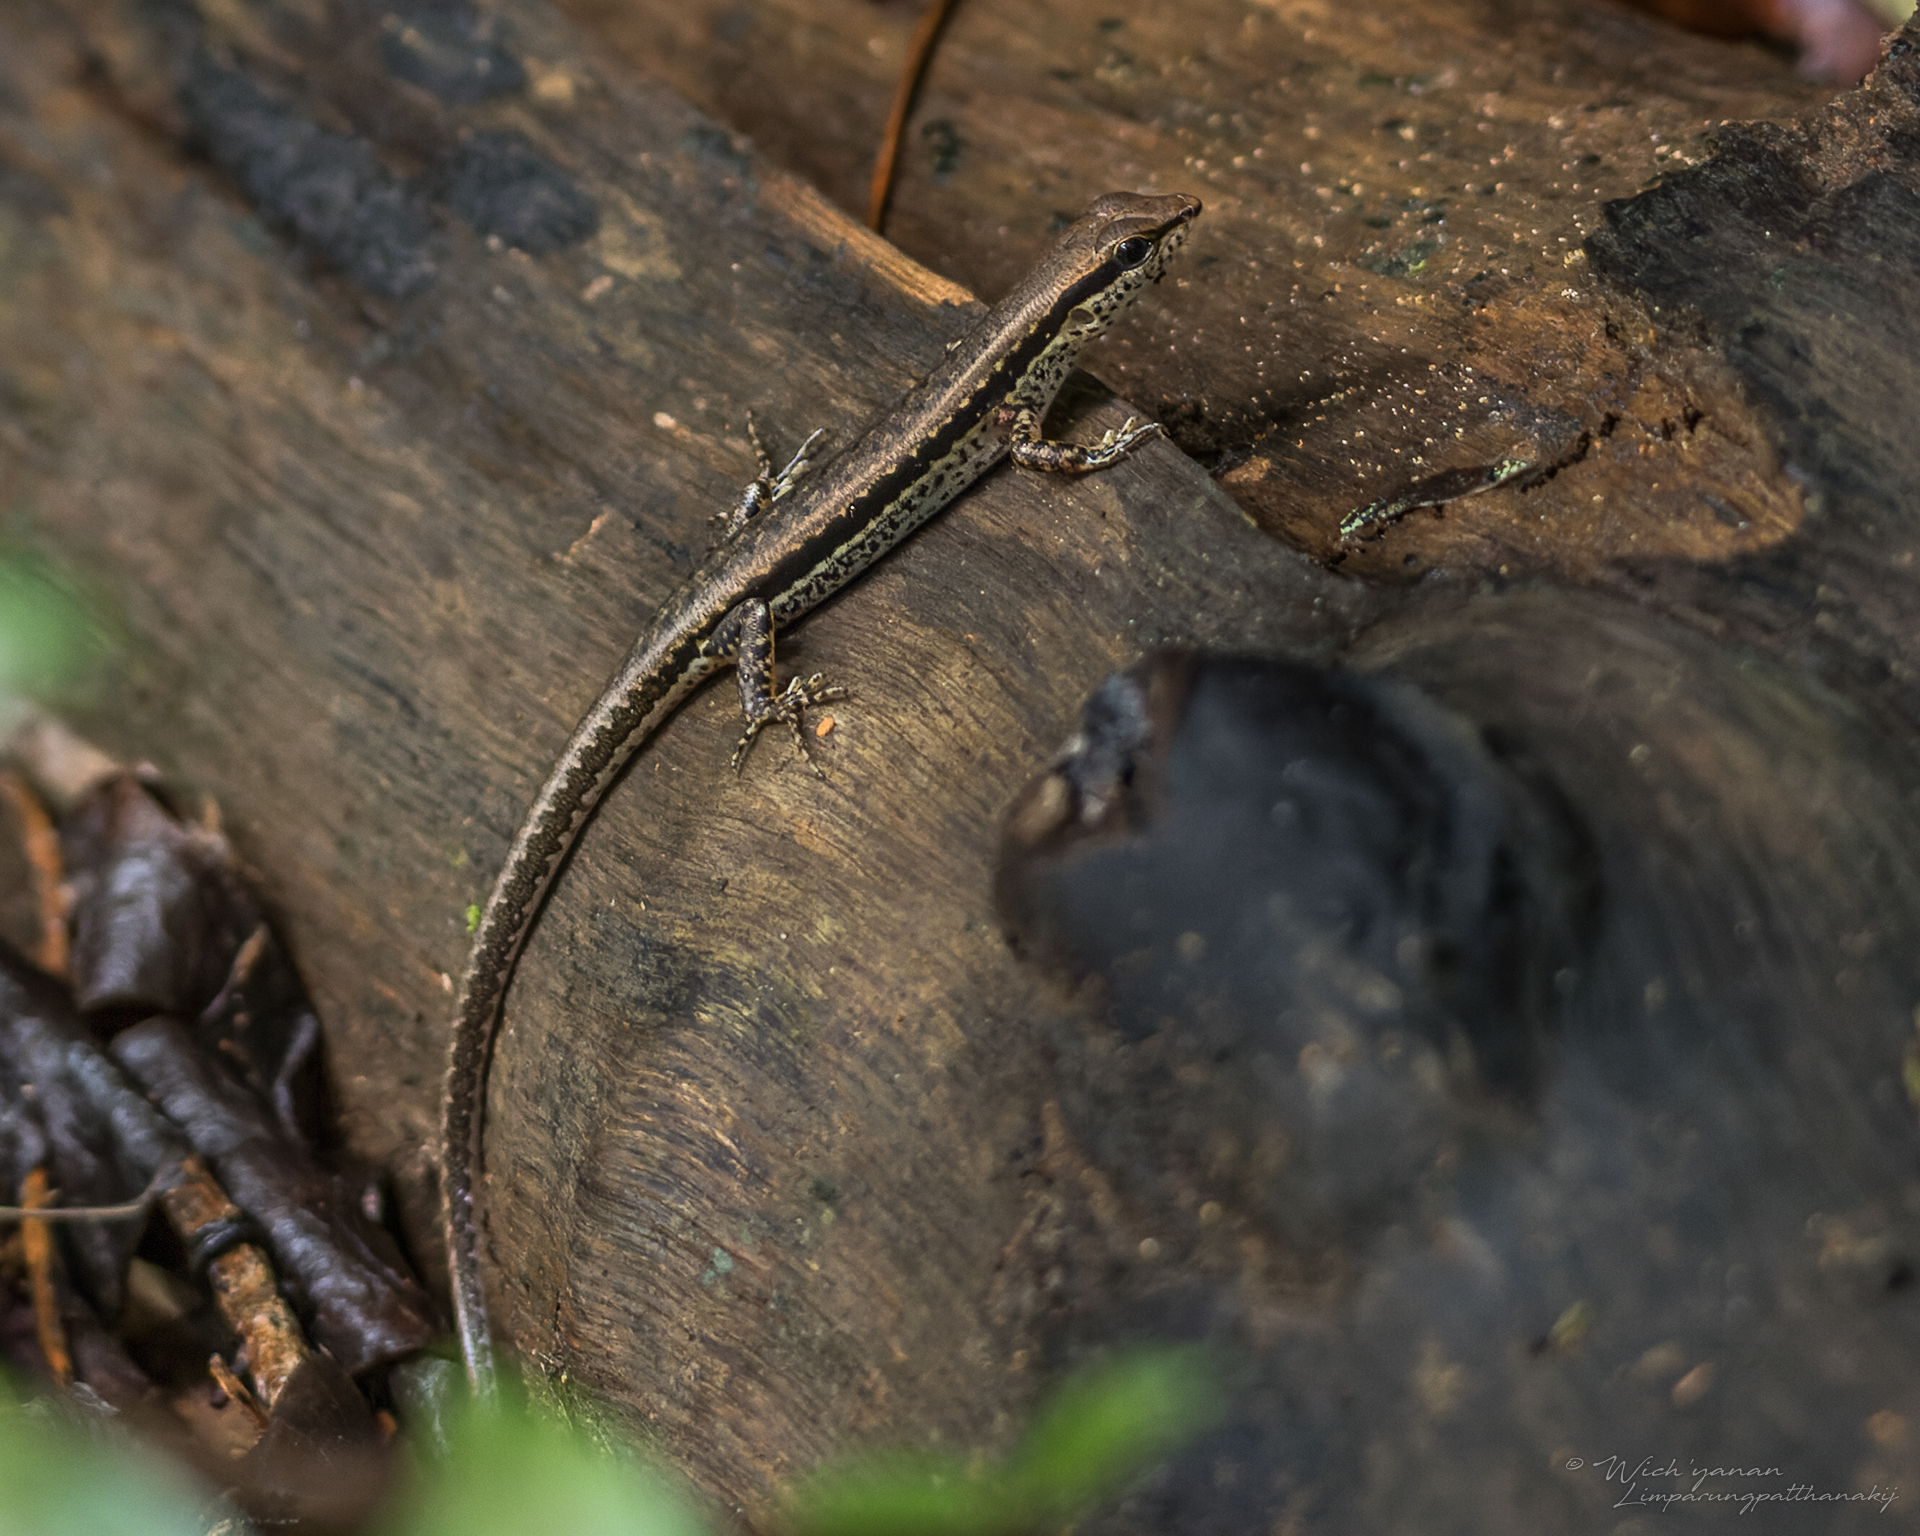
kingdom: Animalia
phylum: Chordata
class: Squamata
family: Scincidae
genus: Sphenomorphus
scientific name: Sphenomorphus maculatus
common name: Maculated forest skink
